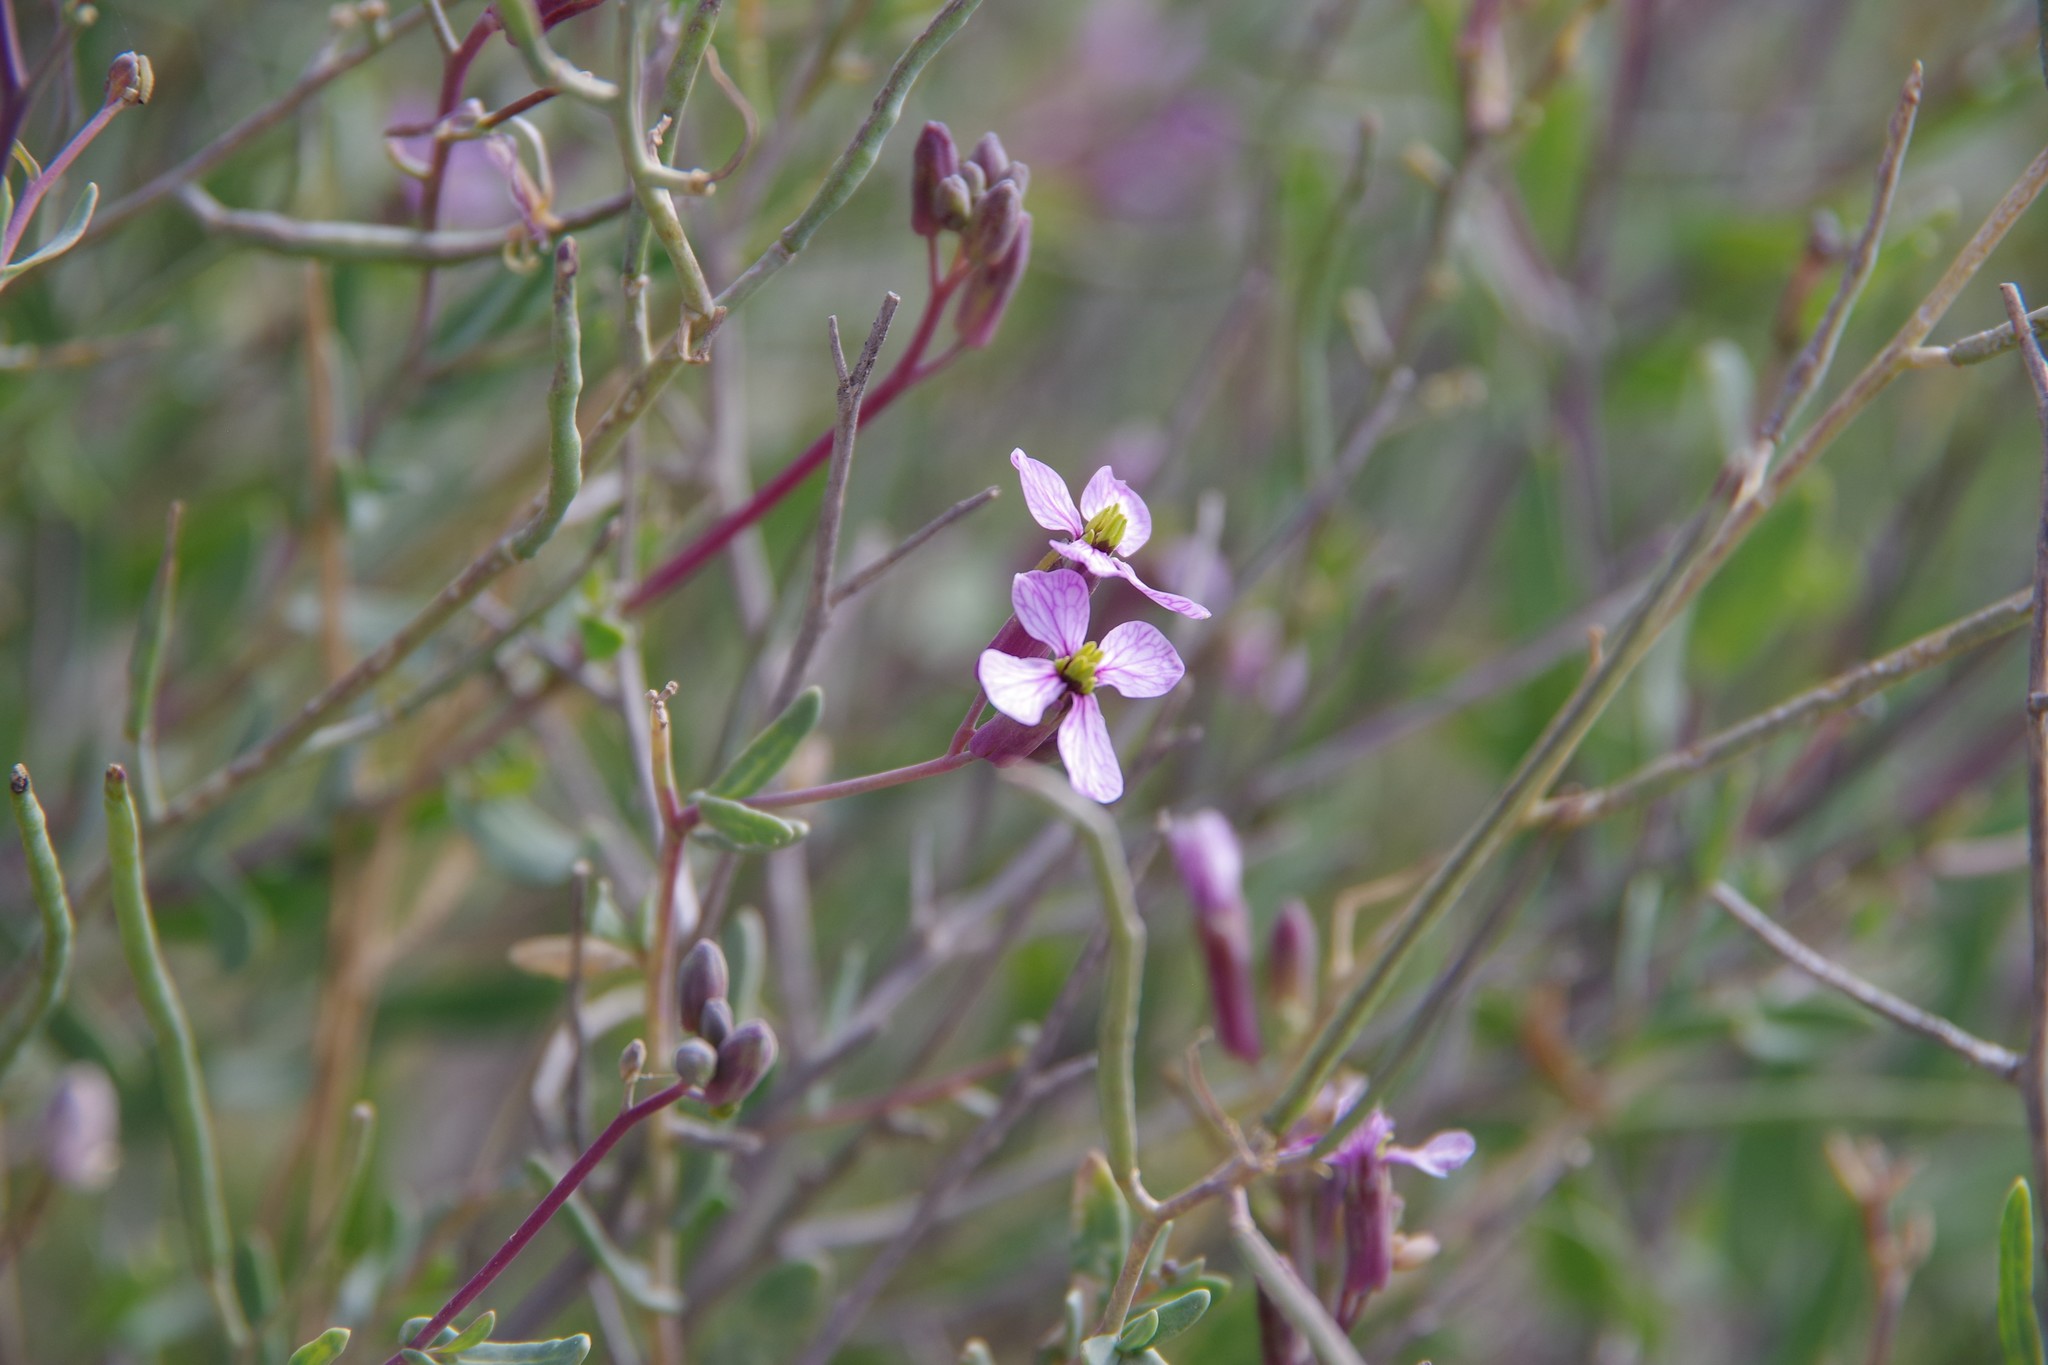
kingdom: Plantae
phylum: Tracheophyta
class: Magnoliopsida
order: Brassicales
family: Brassicaceae
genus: Moricandia
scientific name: Moricandia nitens
